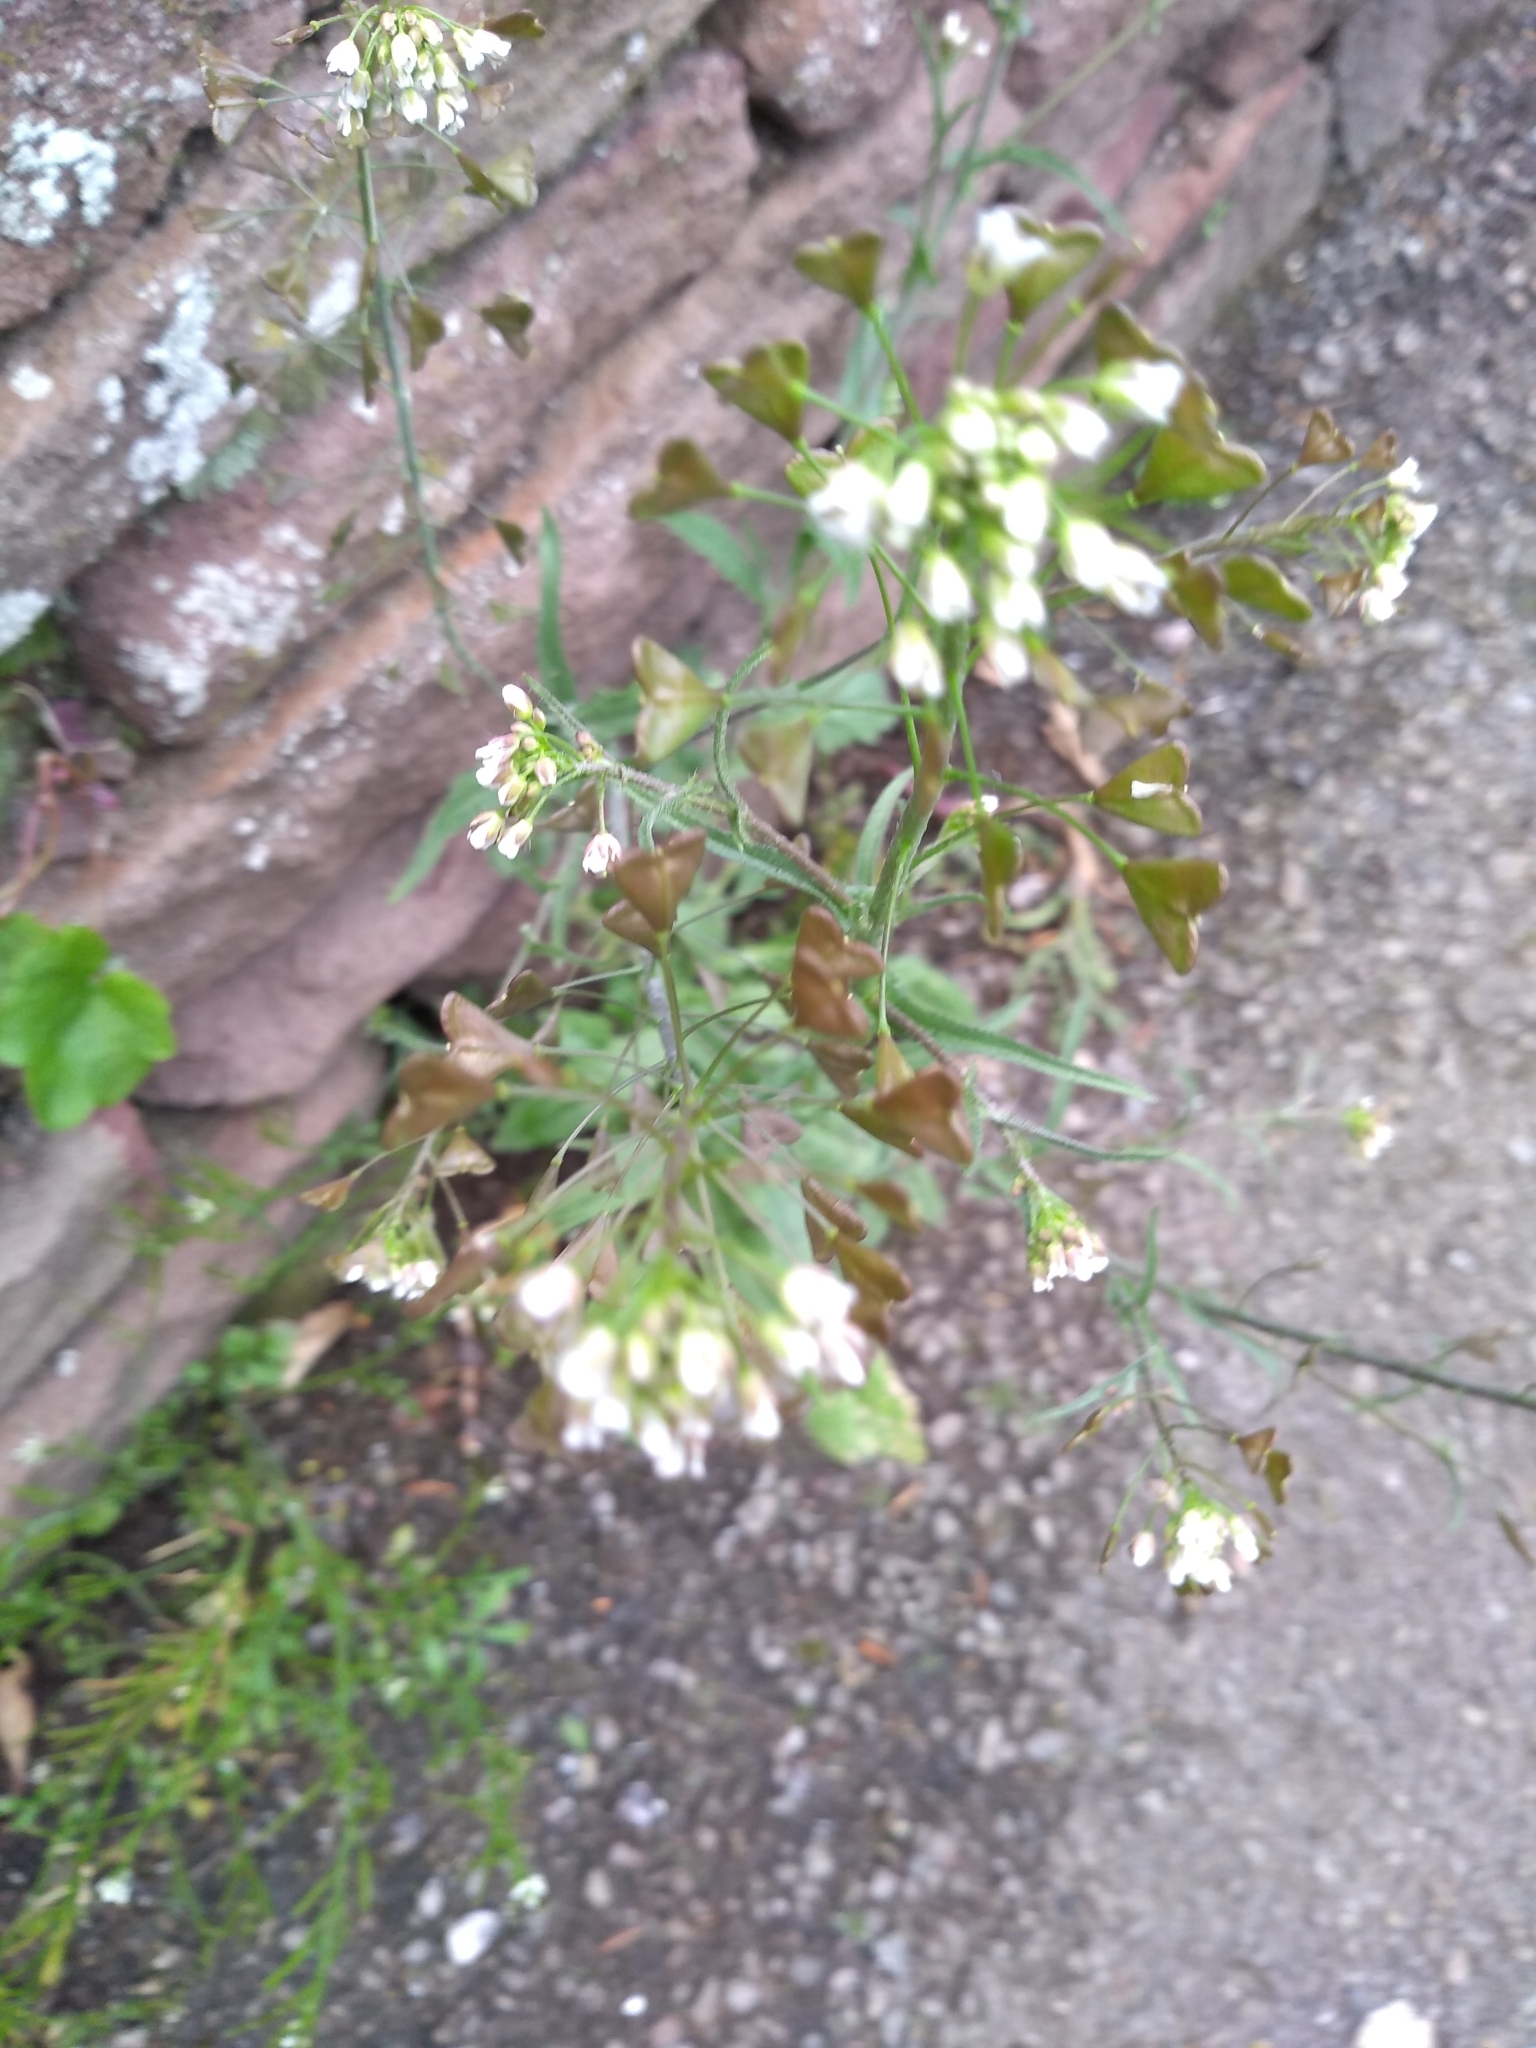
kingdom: Plantae
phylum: Tracheophyta
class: Magnoliopsida
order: Brassicales
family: Brassicaceae
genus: Capsella
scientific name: Capsella bursa-pastoris
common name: Shepherd's purse
